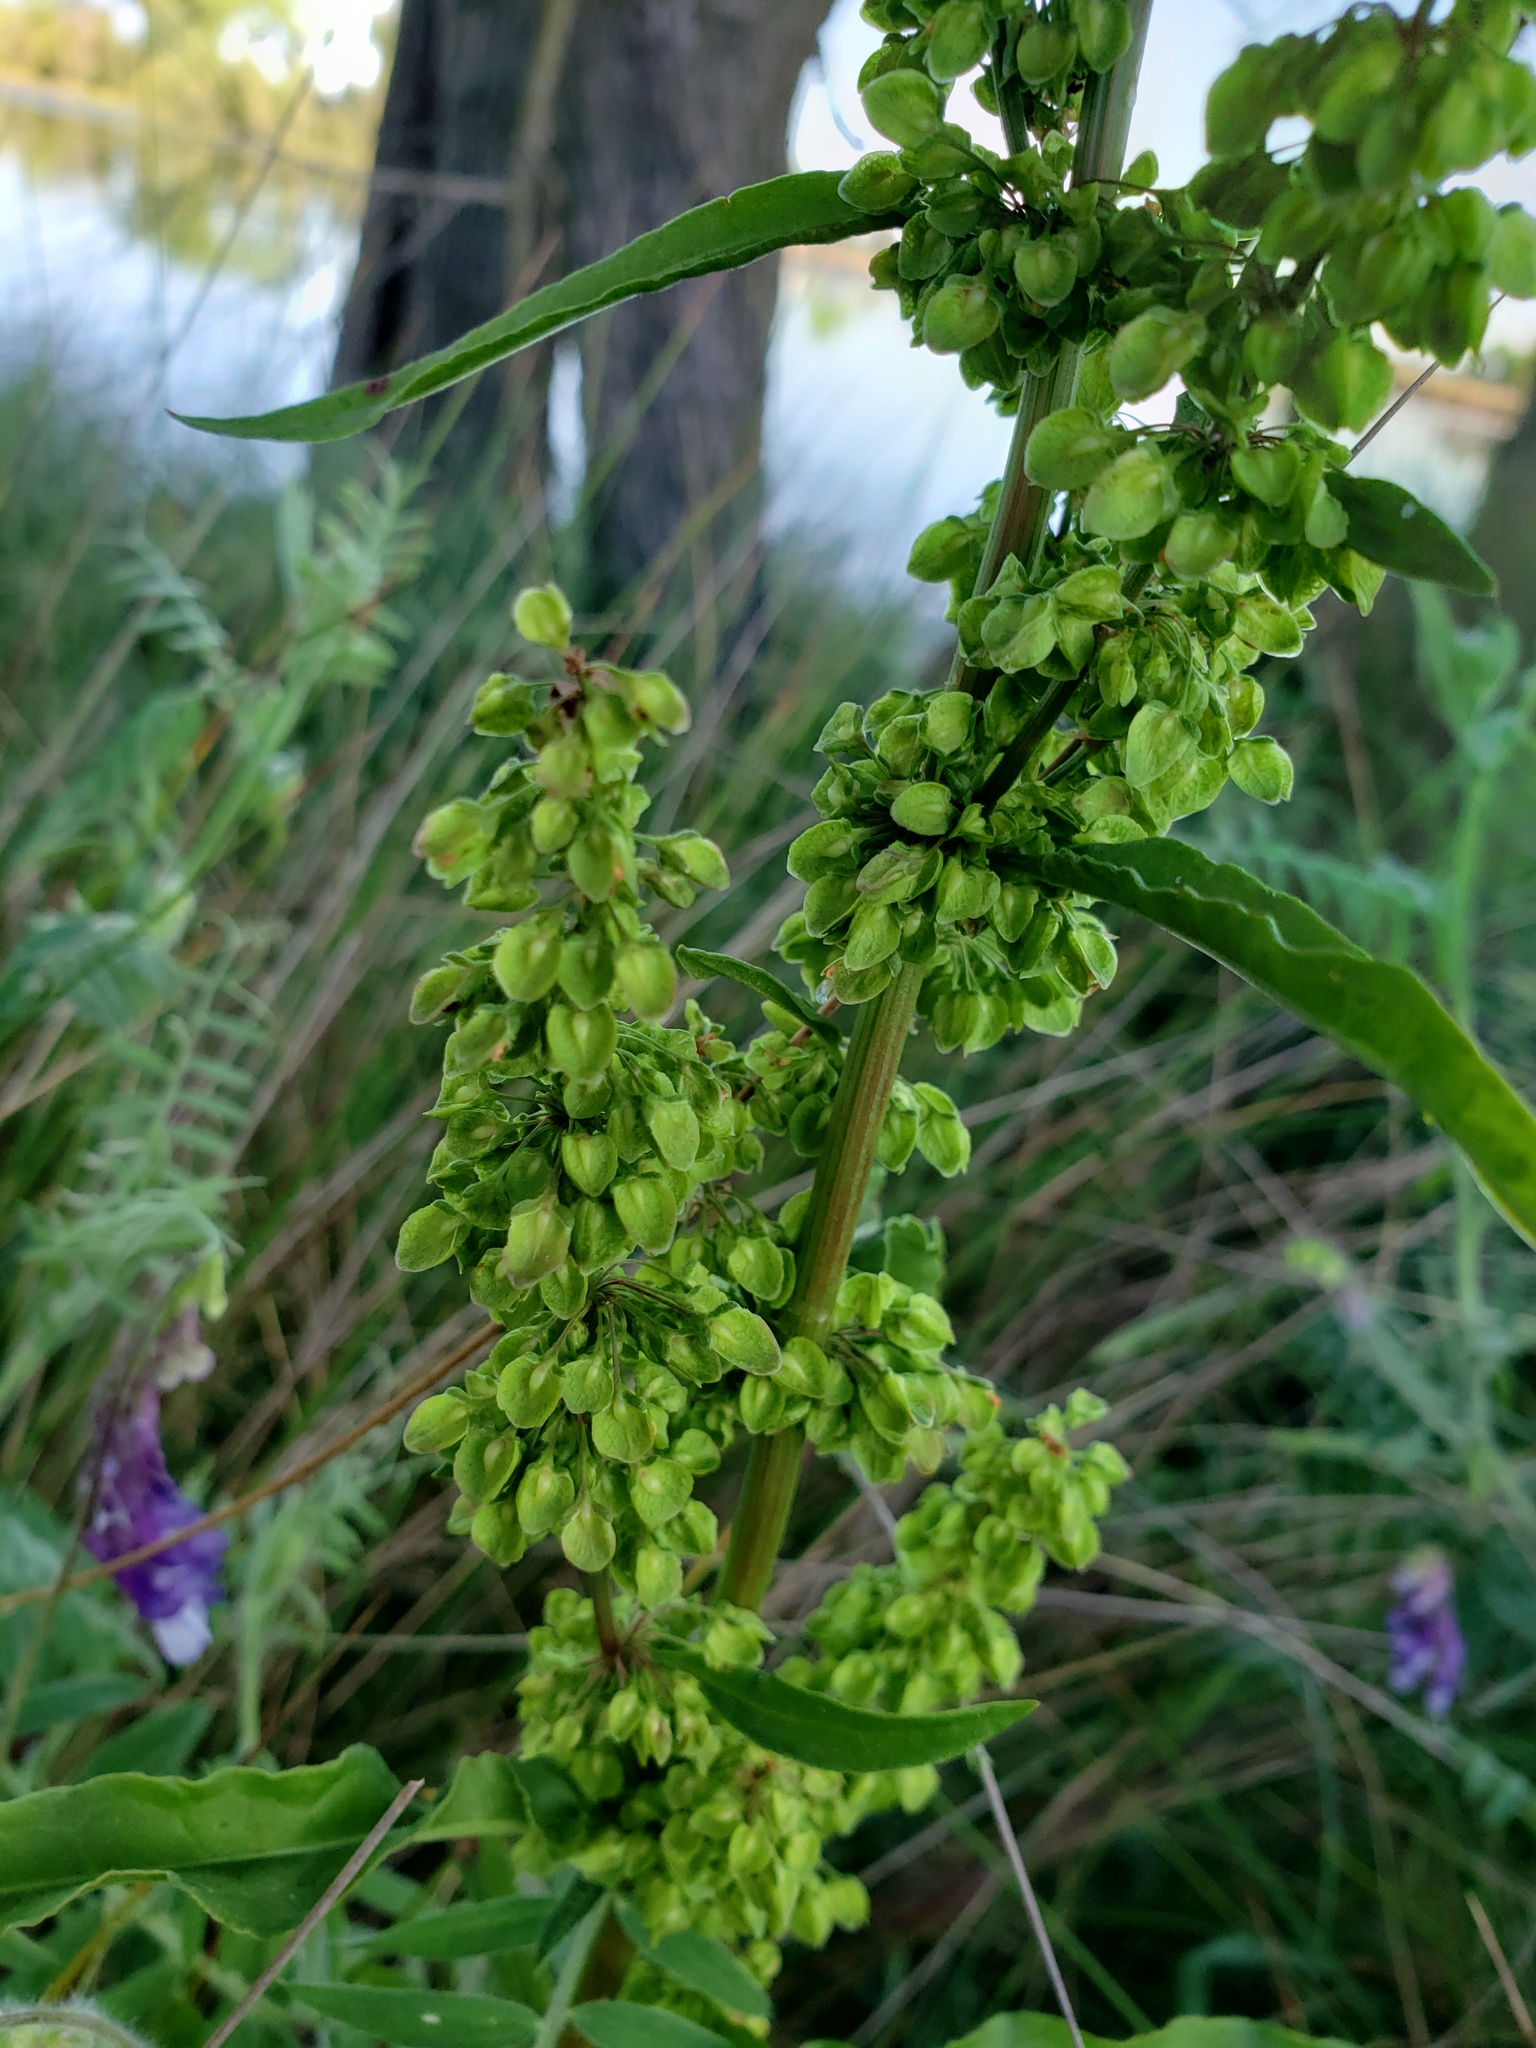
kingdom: Plantae
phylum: Tracheophyta
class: Magnoliopsida
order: Caryophyllales
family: Polygonaceae
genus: Rumex
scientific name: Rumex crispus
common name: Curled dock
